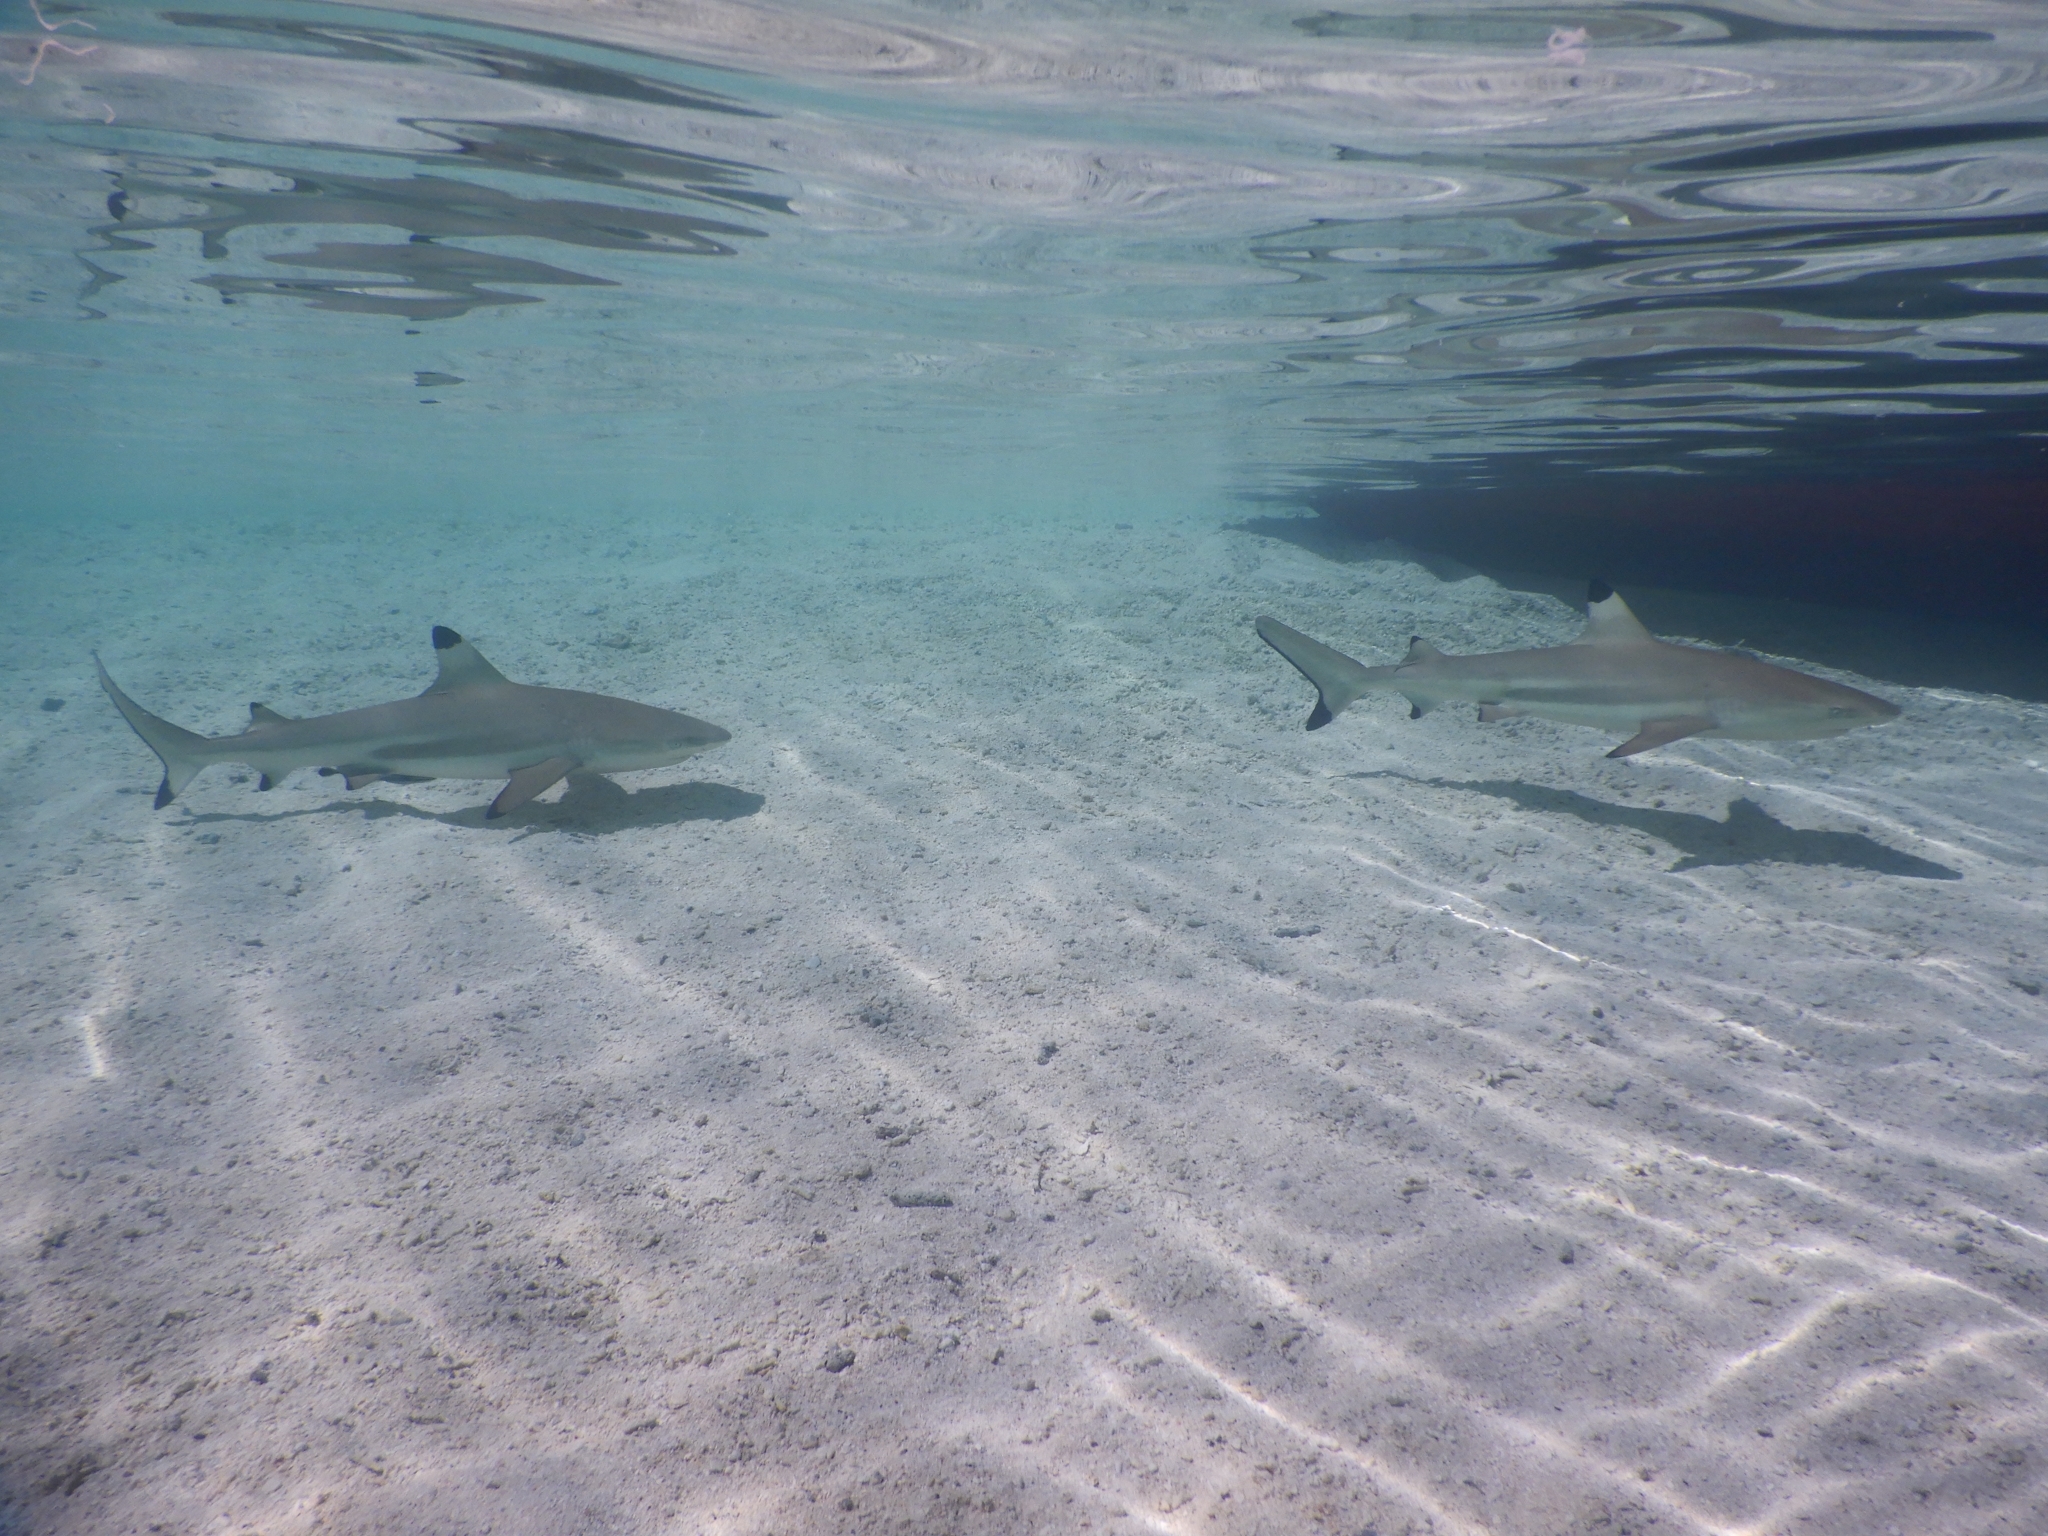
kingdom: Animalia
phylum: Chordata
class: Elasmobranchii
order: Carcharhiniformes
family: Carcharhinidae
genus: Carcharhinus
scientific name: Carcharhinus melanopterus
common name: Blacktip reef shark
